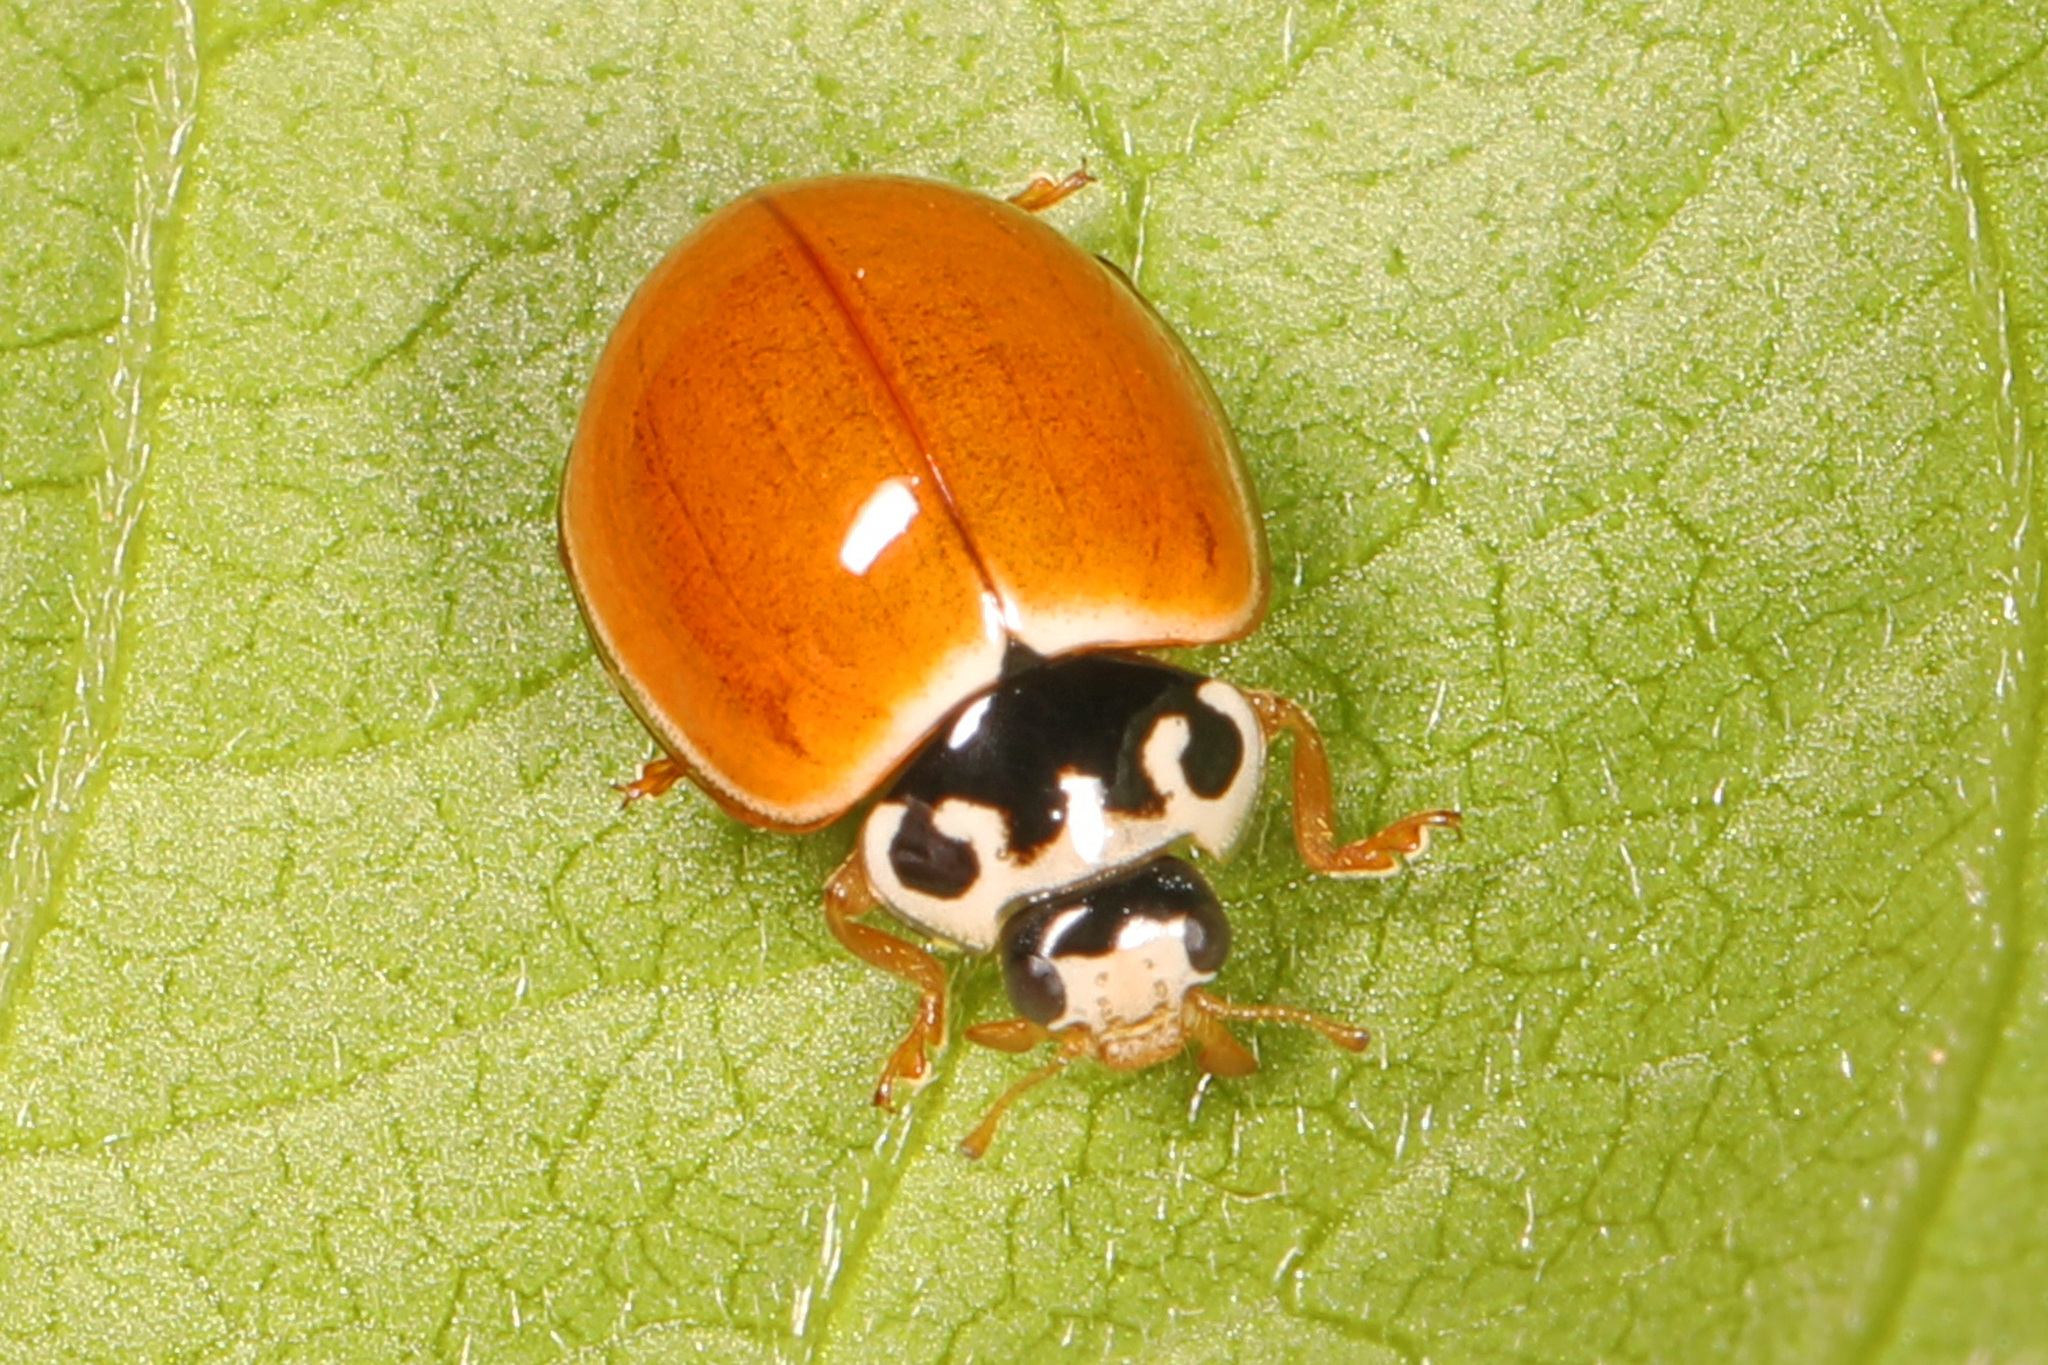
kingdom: Animalia
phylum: Arthropoda
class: Insecta
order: Coleoptera
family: Coccinellidae
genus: Cycloneda
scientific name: Cycloneda munda
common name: Polished lady beetle
